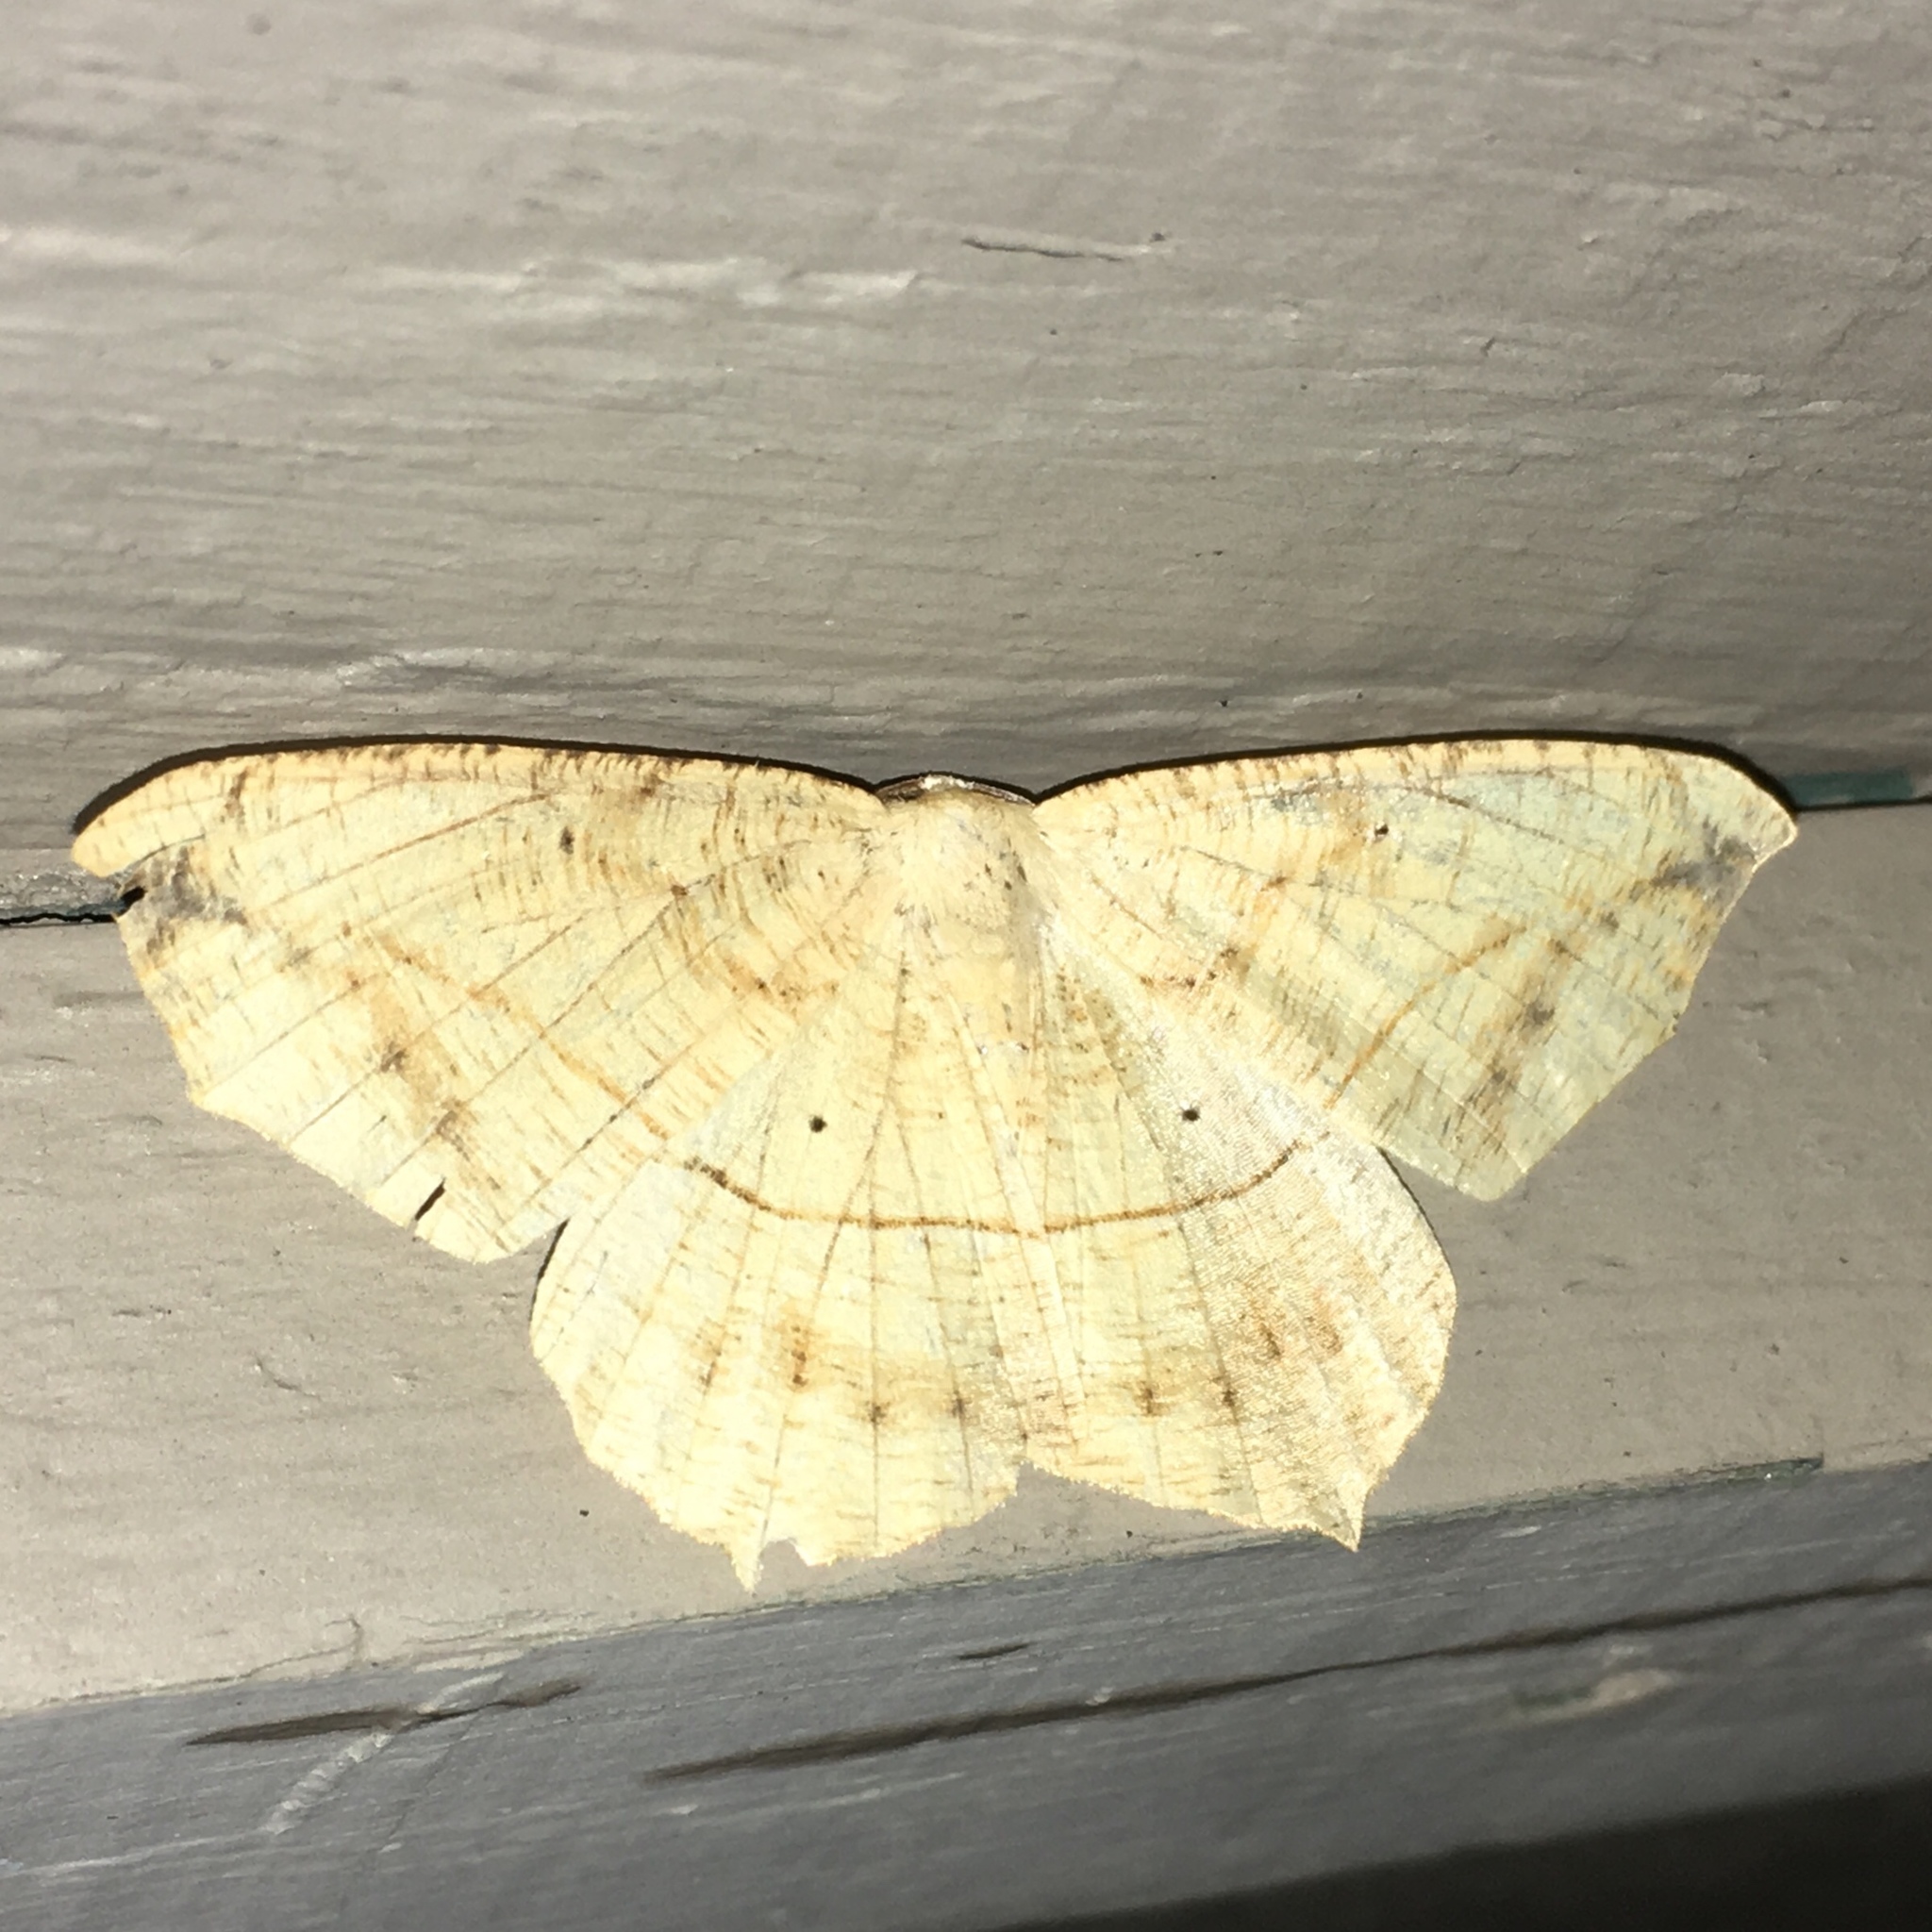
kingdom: Animalia
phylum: Arthropoda
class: Insecta
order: Lepidoptera
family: Geometridae
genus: Prochoerodes
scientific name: Prochoerodes lineola
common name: Large maple spanworm
